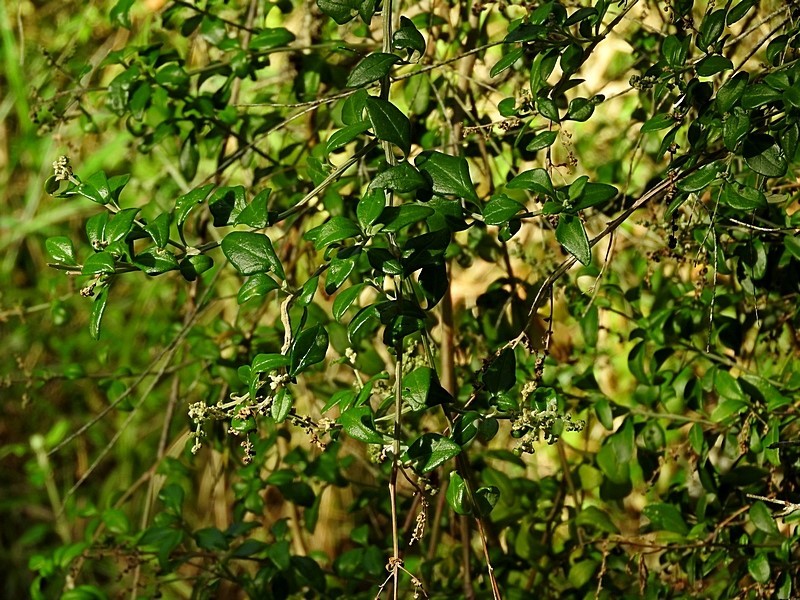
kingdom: Plantae
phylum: Tracheophyta
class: Magnoliopsida
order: Caryophyllales
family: Amaranthaceae
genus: Chenopodium
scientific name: Chenopodium candolleanum
